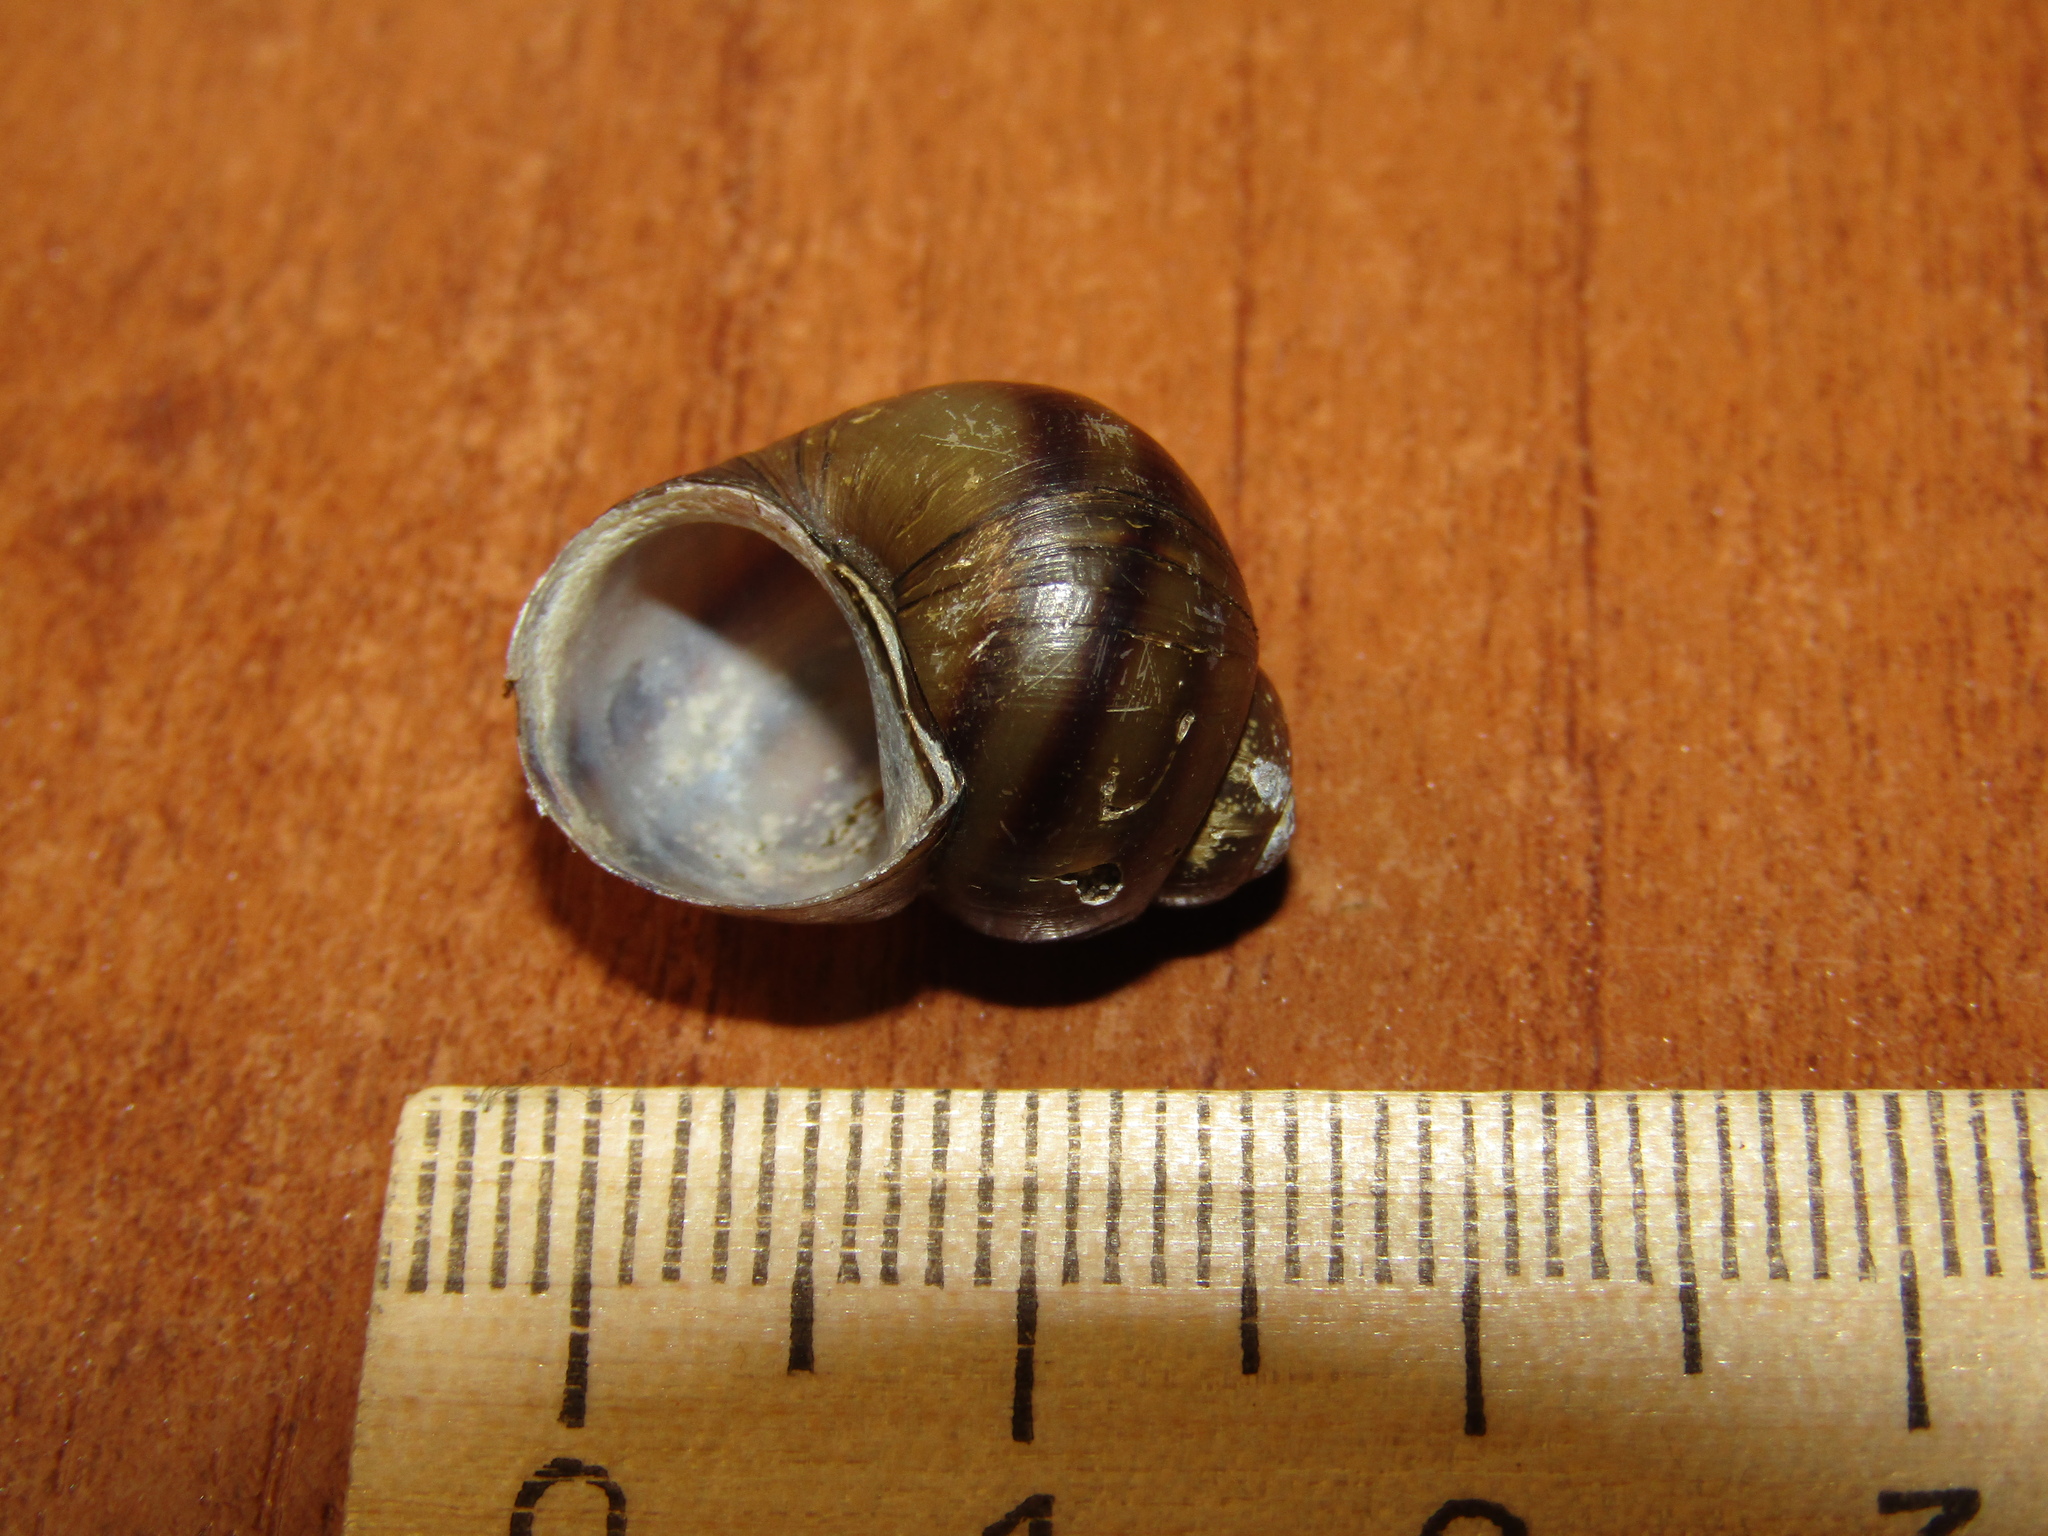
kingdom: Animalia
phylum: Mollusca
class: Gastropoda
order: Architaenioglossa
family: Viviparidae
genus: Viviparus
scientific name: Viviparus viviparus
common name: River snail
